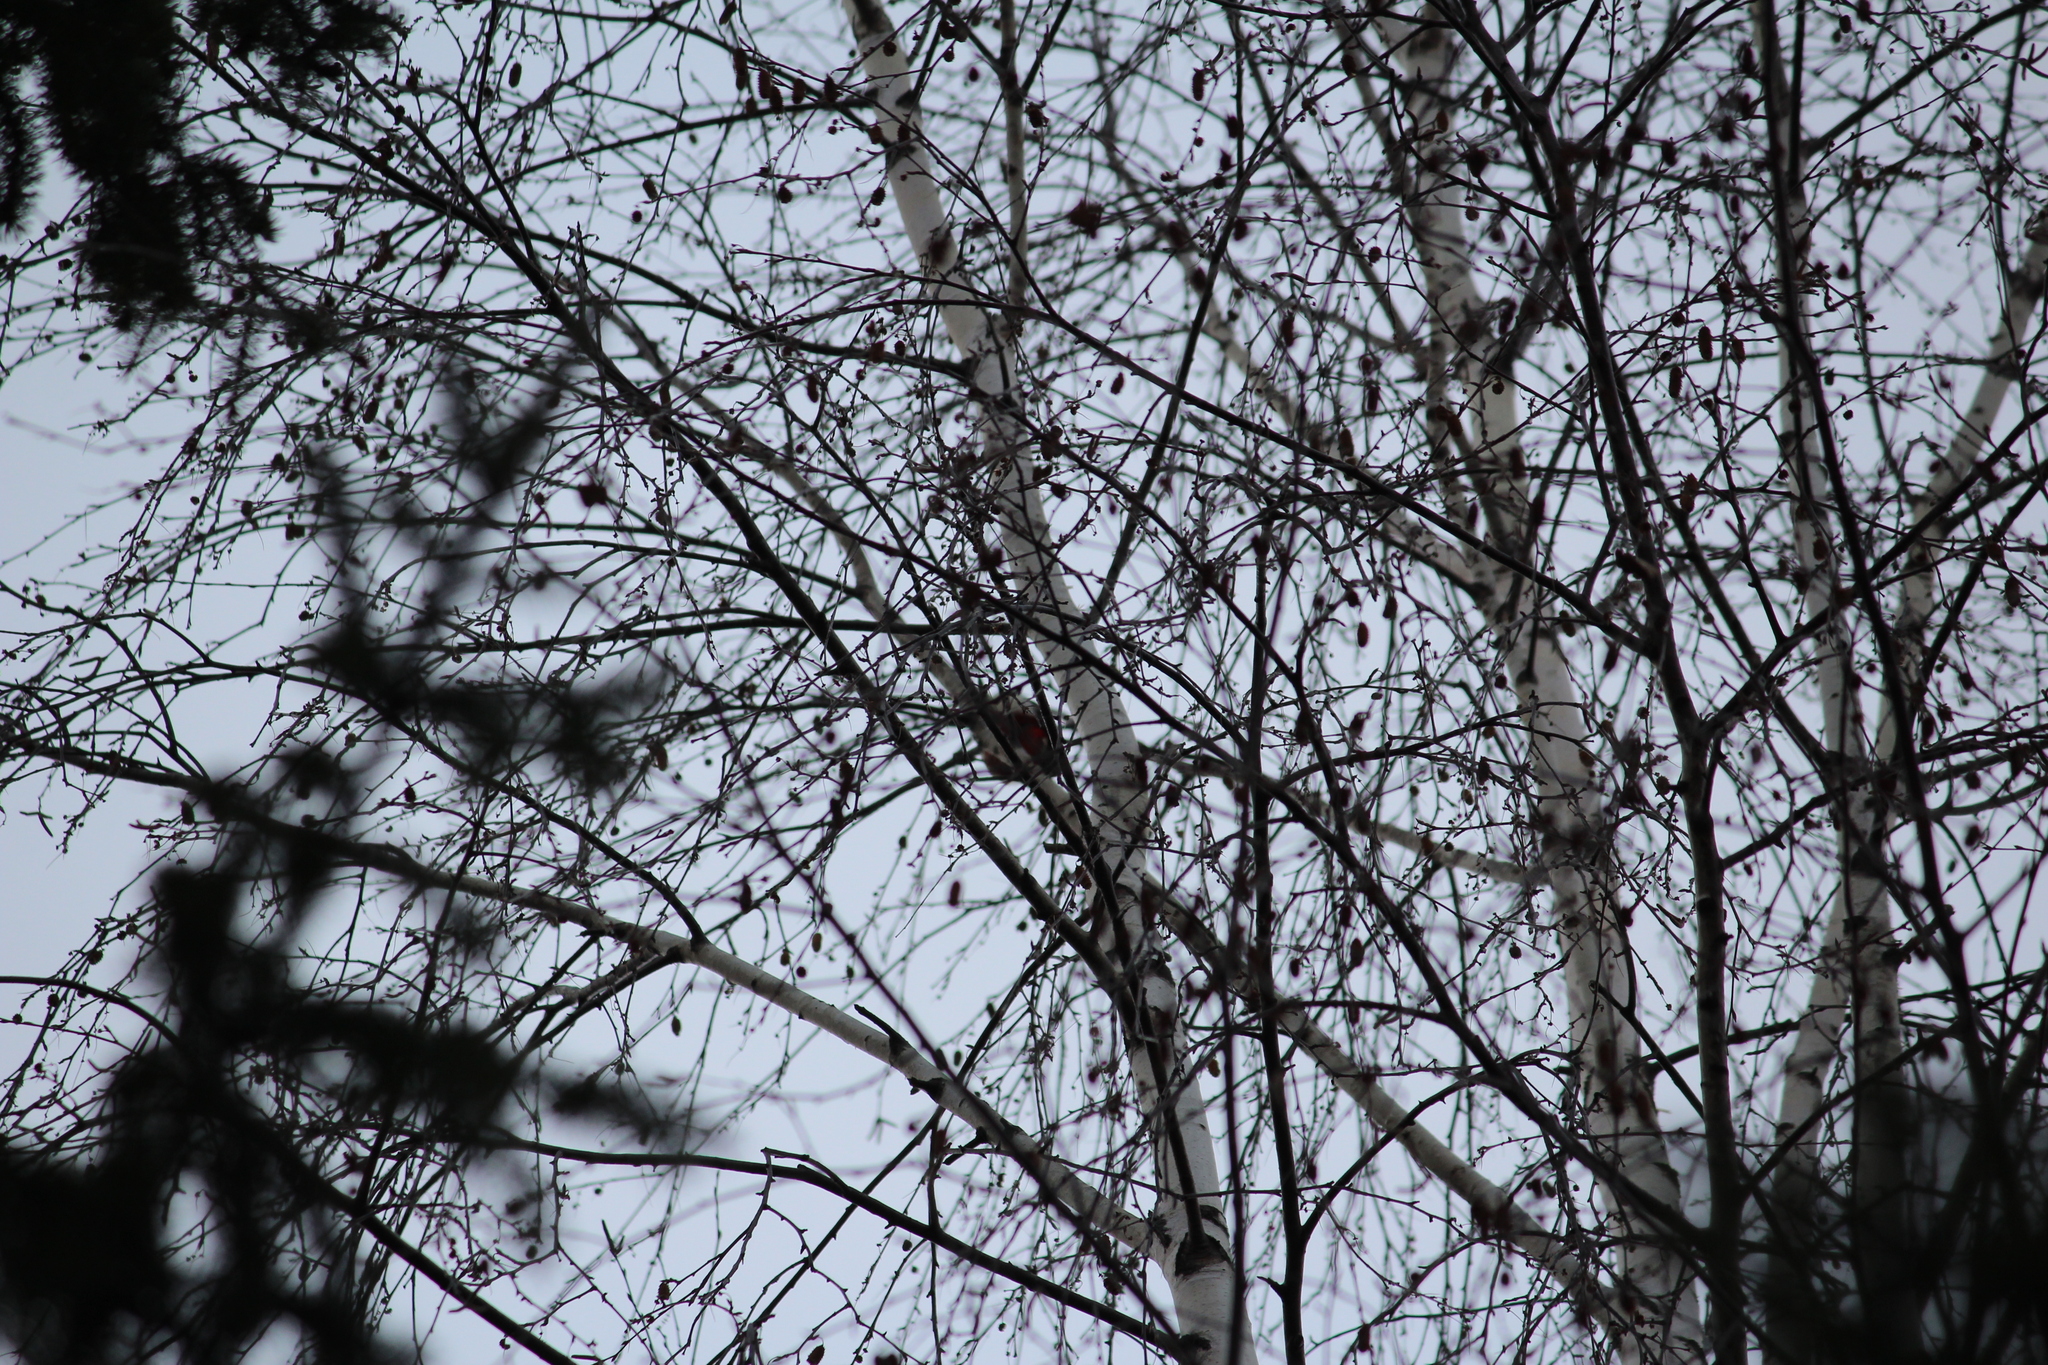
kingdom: Animalia
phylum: Chordata
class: Aves
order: Piciformes
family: Picidae
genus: Dendrocopos
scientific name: Dendrocopos major
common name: Great spotted woodpecker
